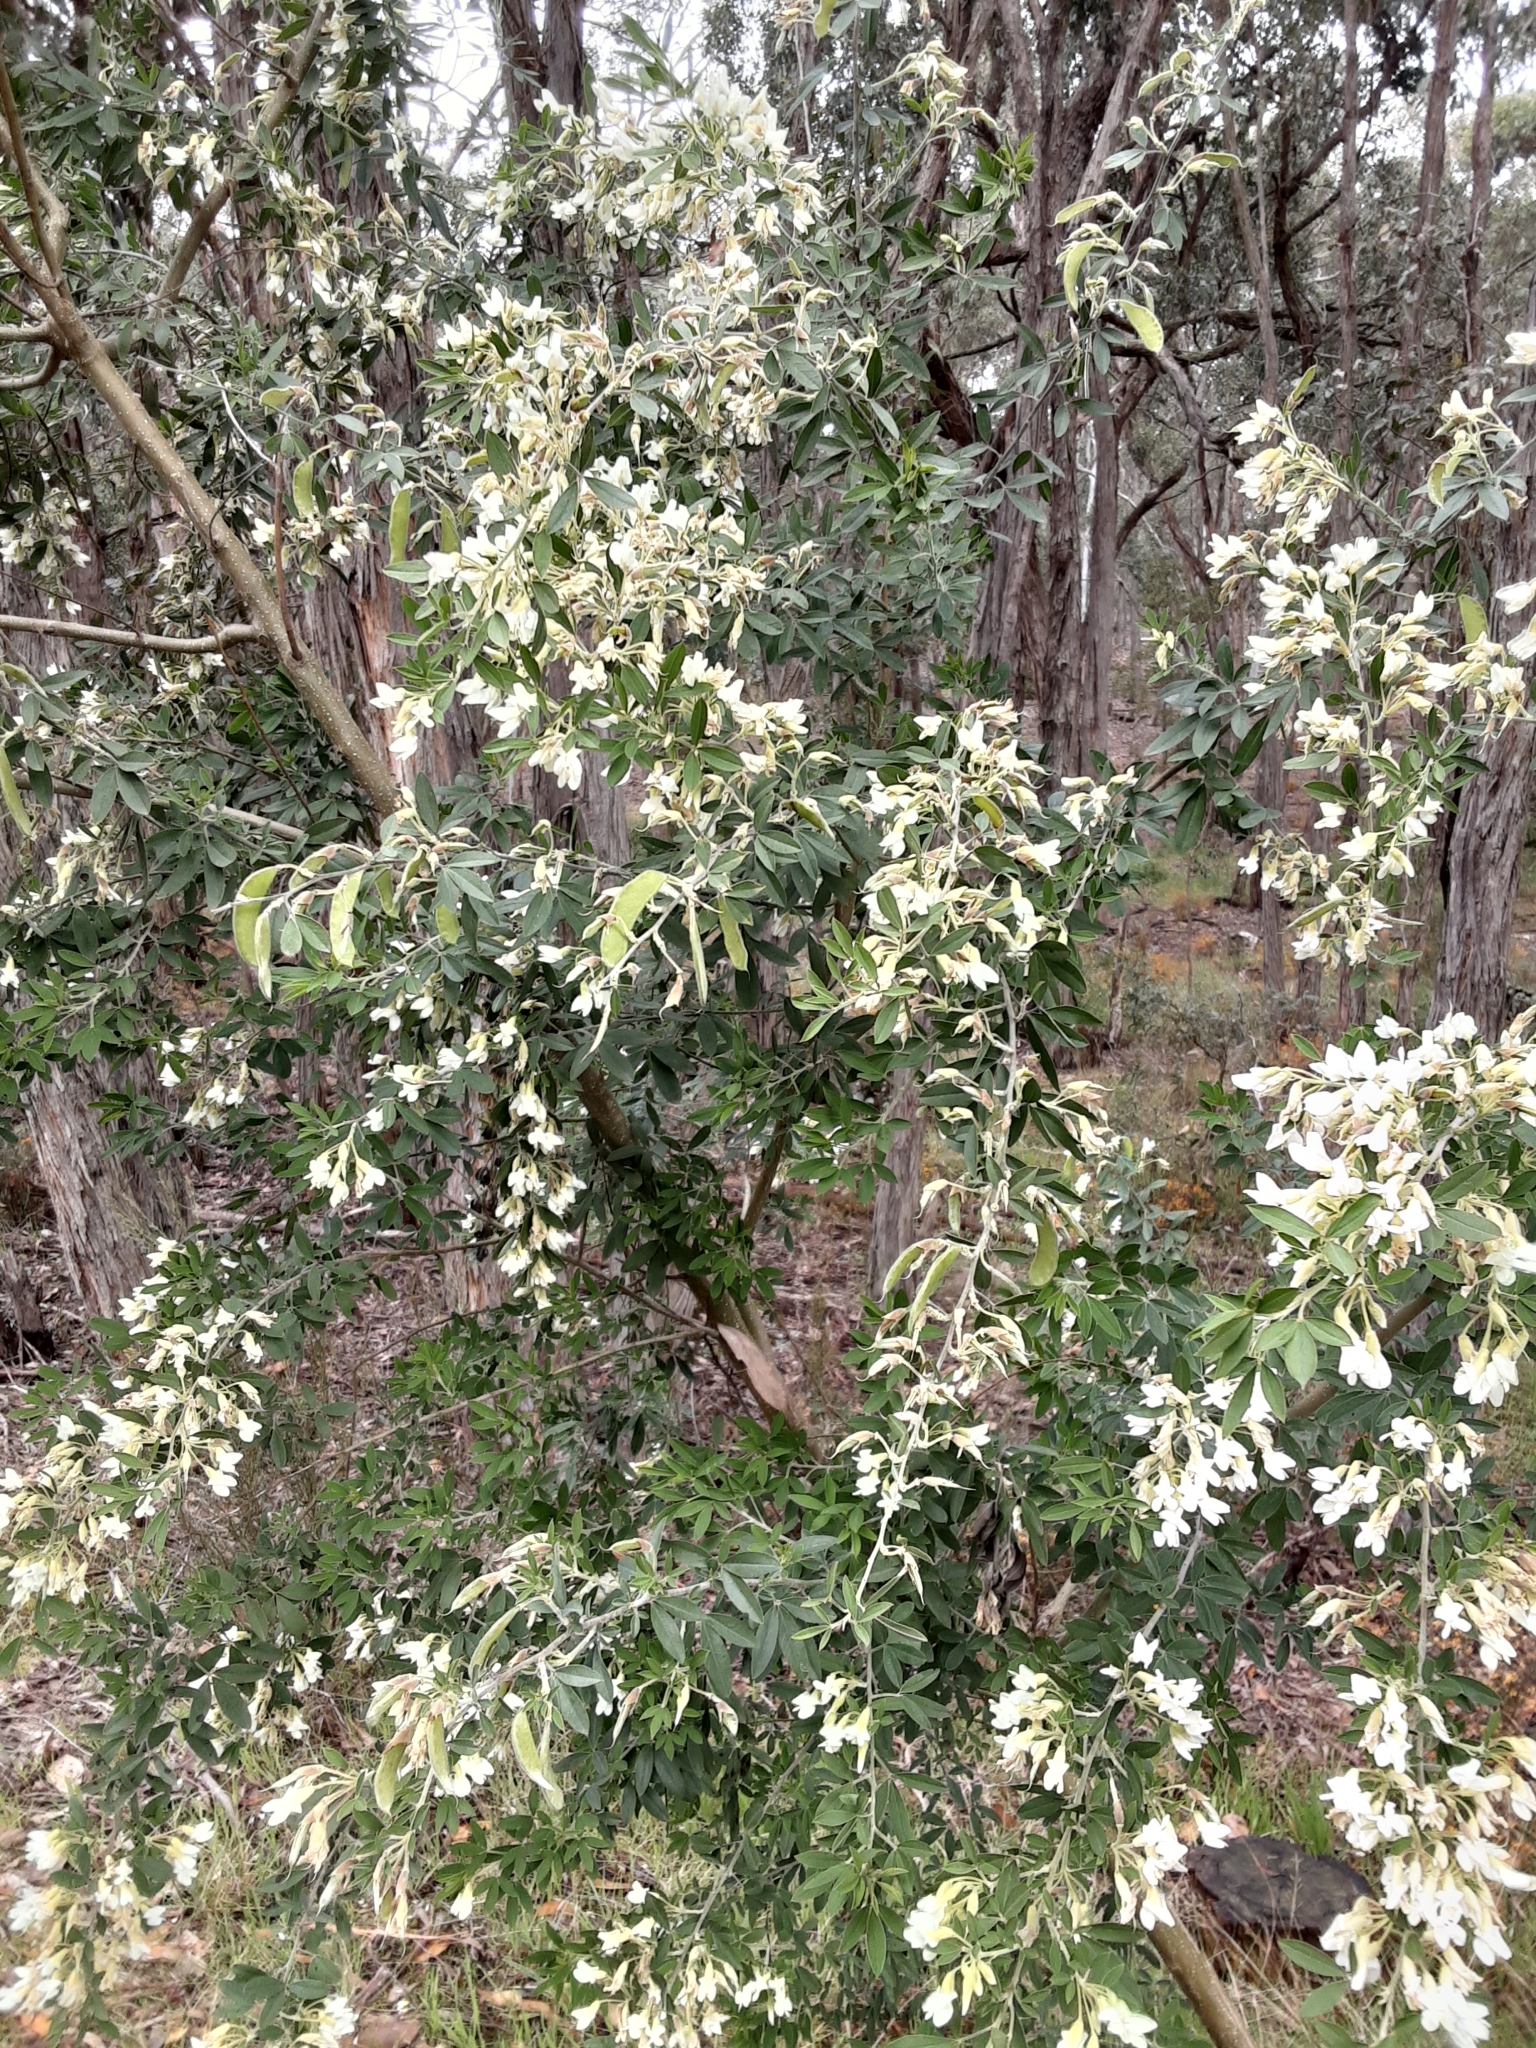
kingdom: Plantae
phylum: Tracheophyta
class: Magnoliopsida
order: Fabales
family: Fabaceae
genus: Chamaecytisus
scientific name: Chamaecytisus prolifer
